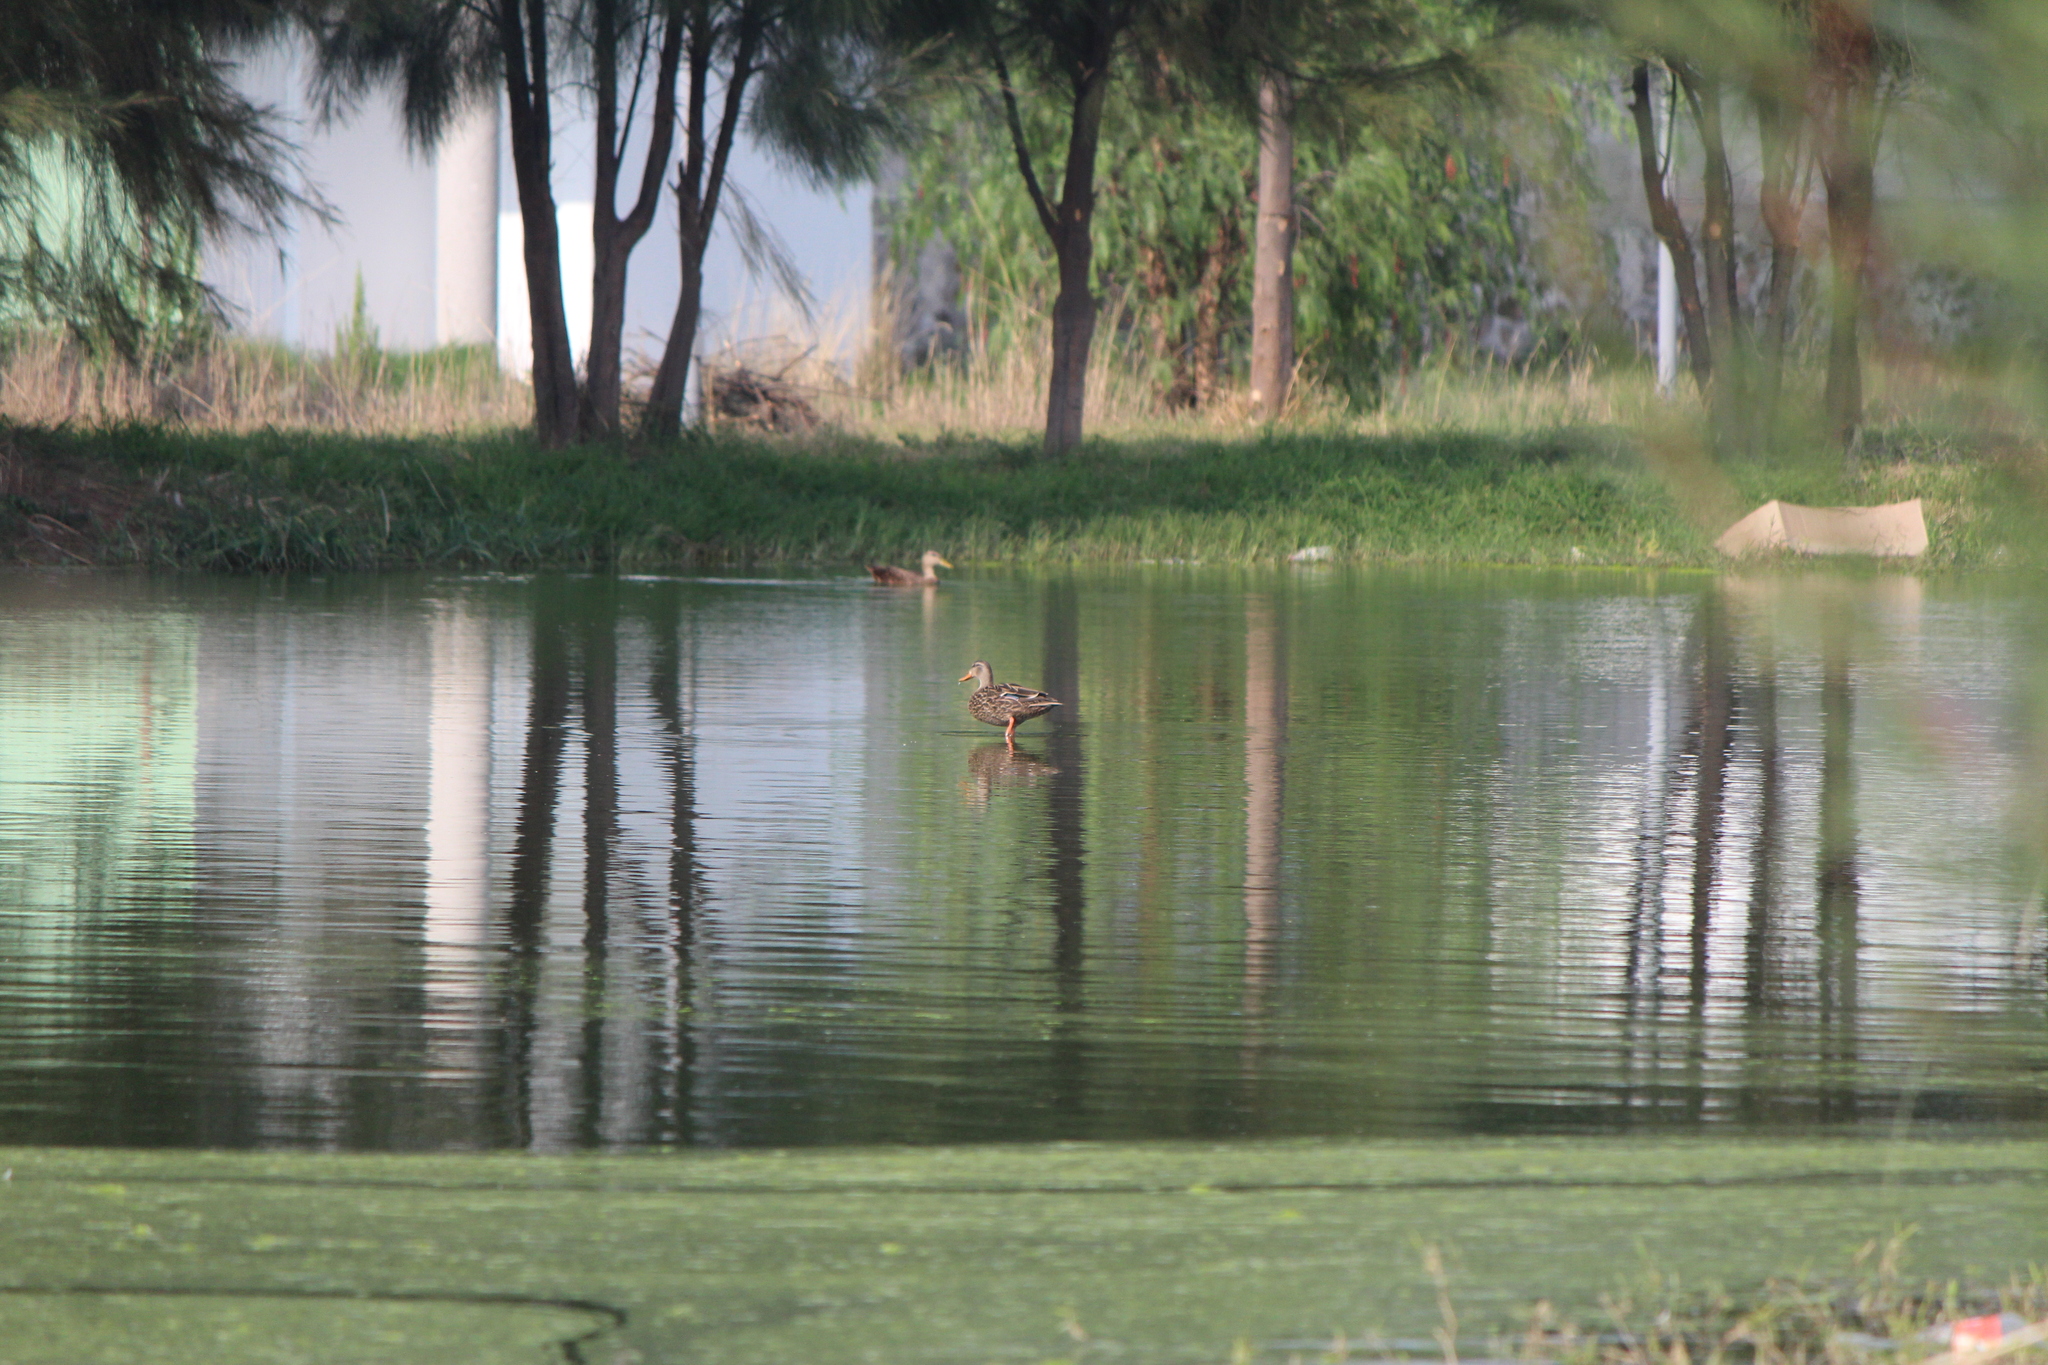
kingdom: Animalia
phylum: Chordata
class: Aves
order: Anseriformes
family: Anatidae
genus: Anas
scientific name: Anas diazi
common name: Mexican duck
